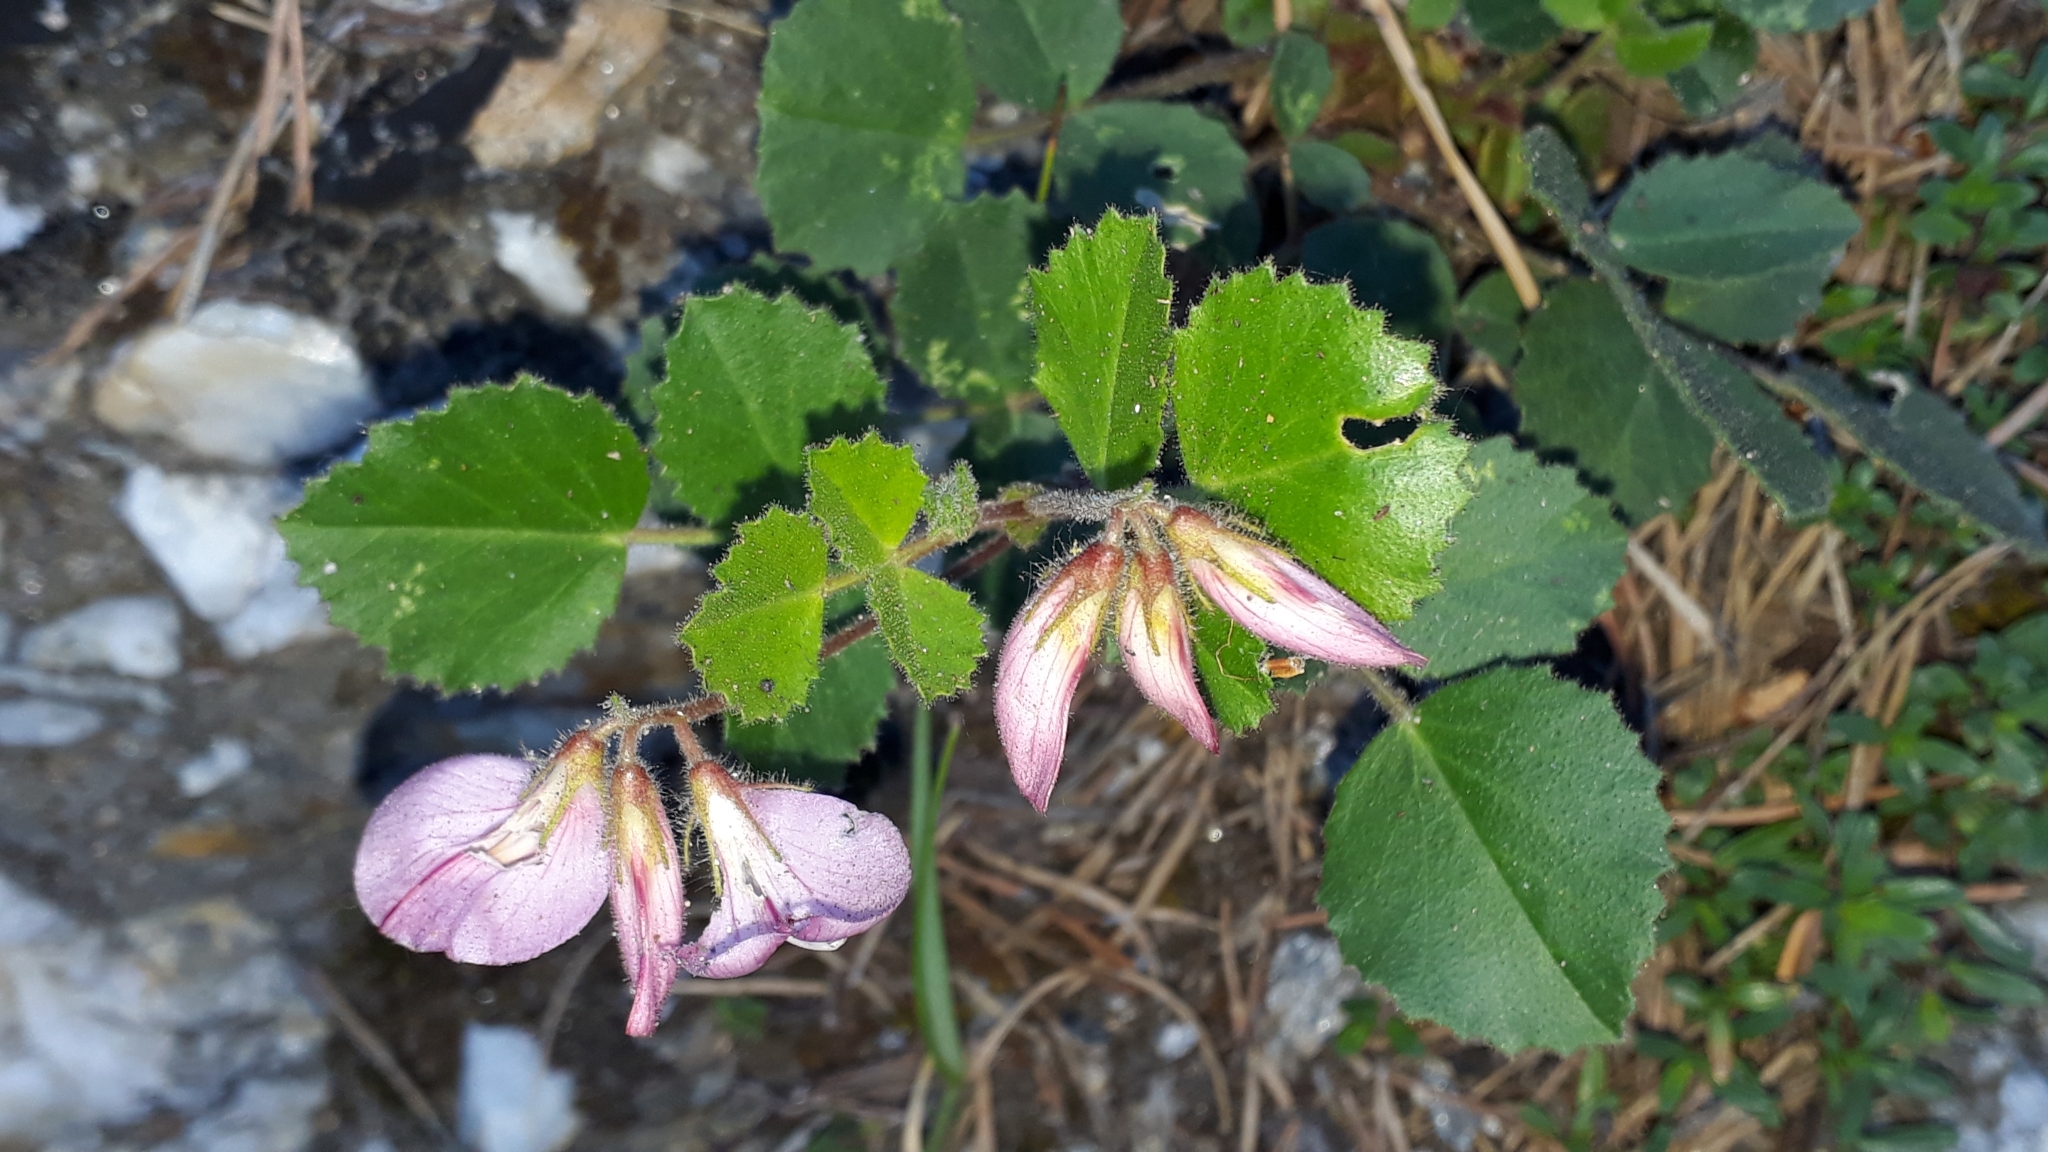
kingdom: Plantae
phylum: Tracheophyta
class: Magnoliopsida
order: Fabales
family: Fabaceae
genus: Ononis
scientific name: Ononis rotundifolia
